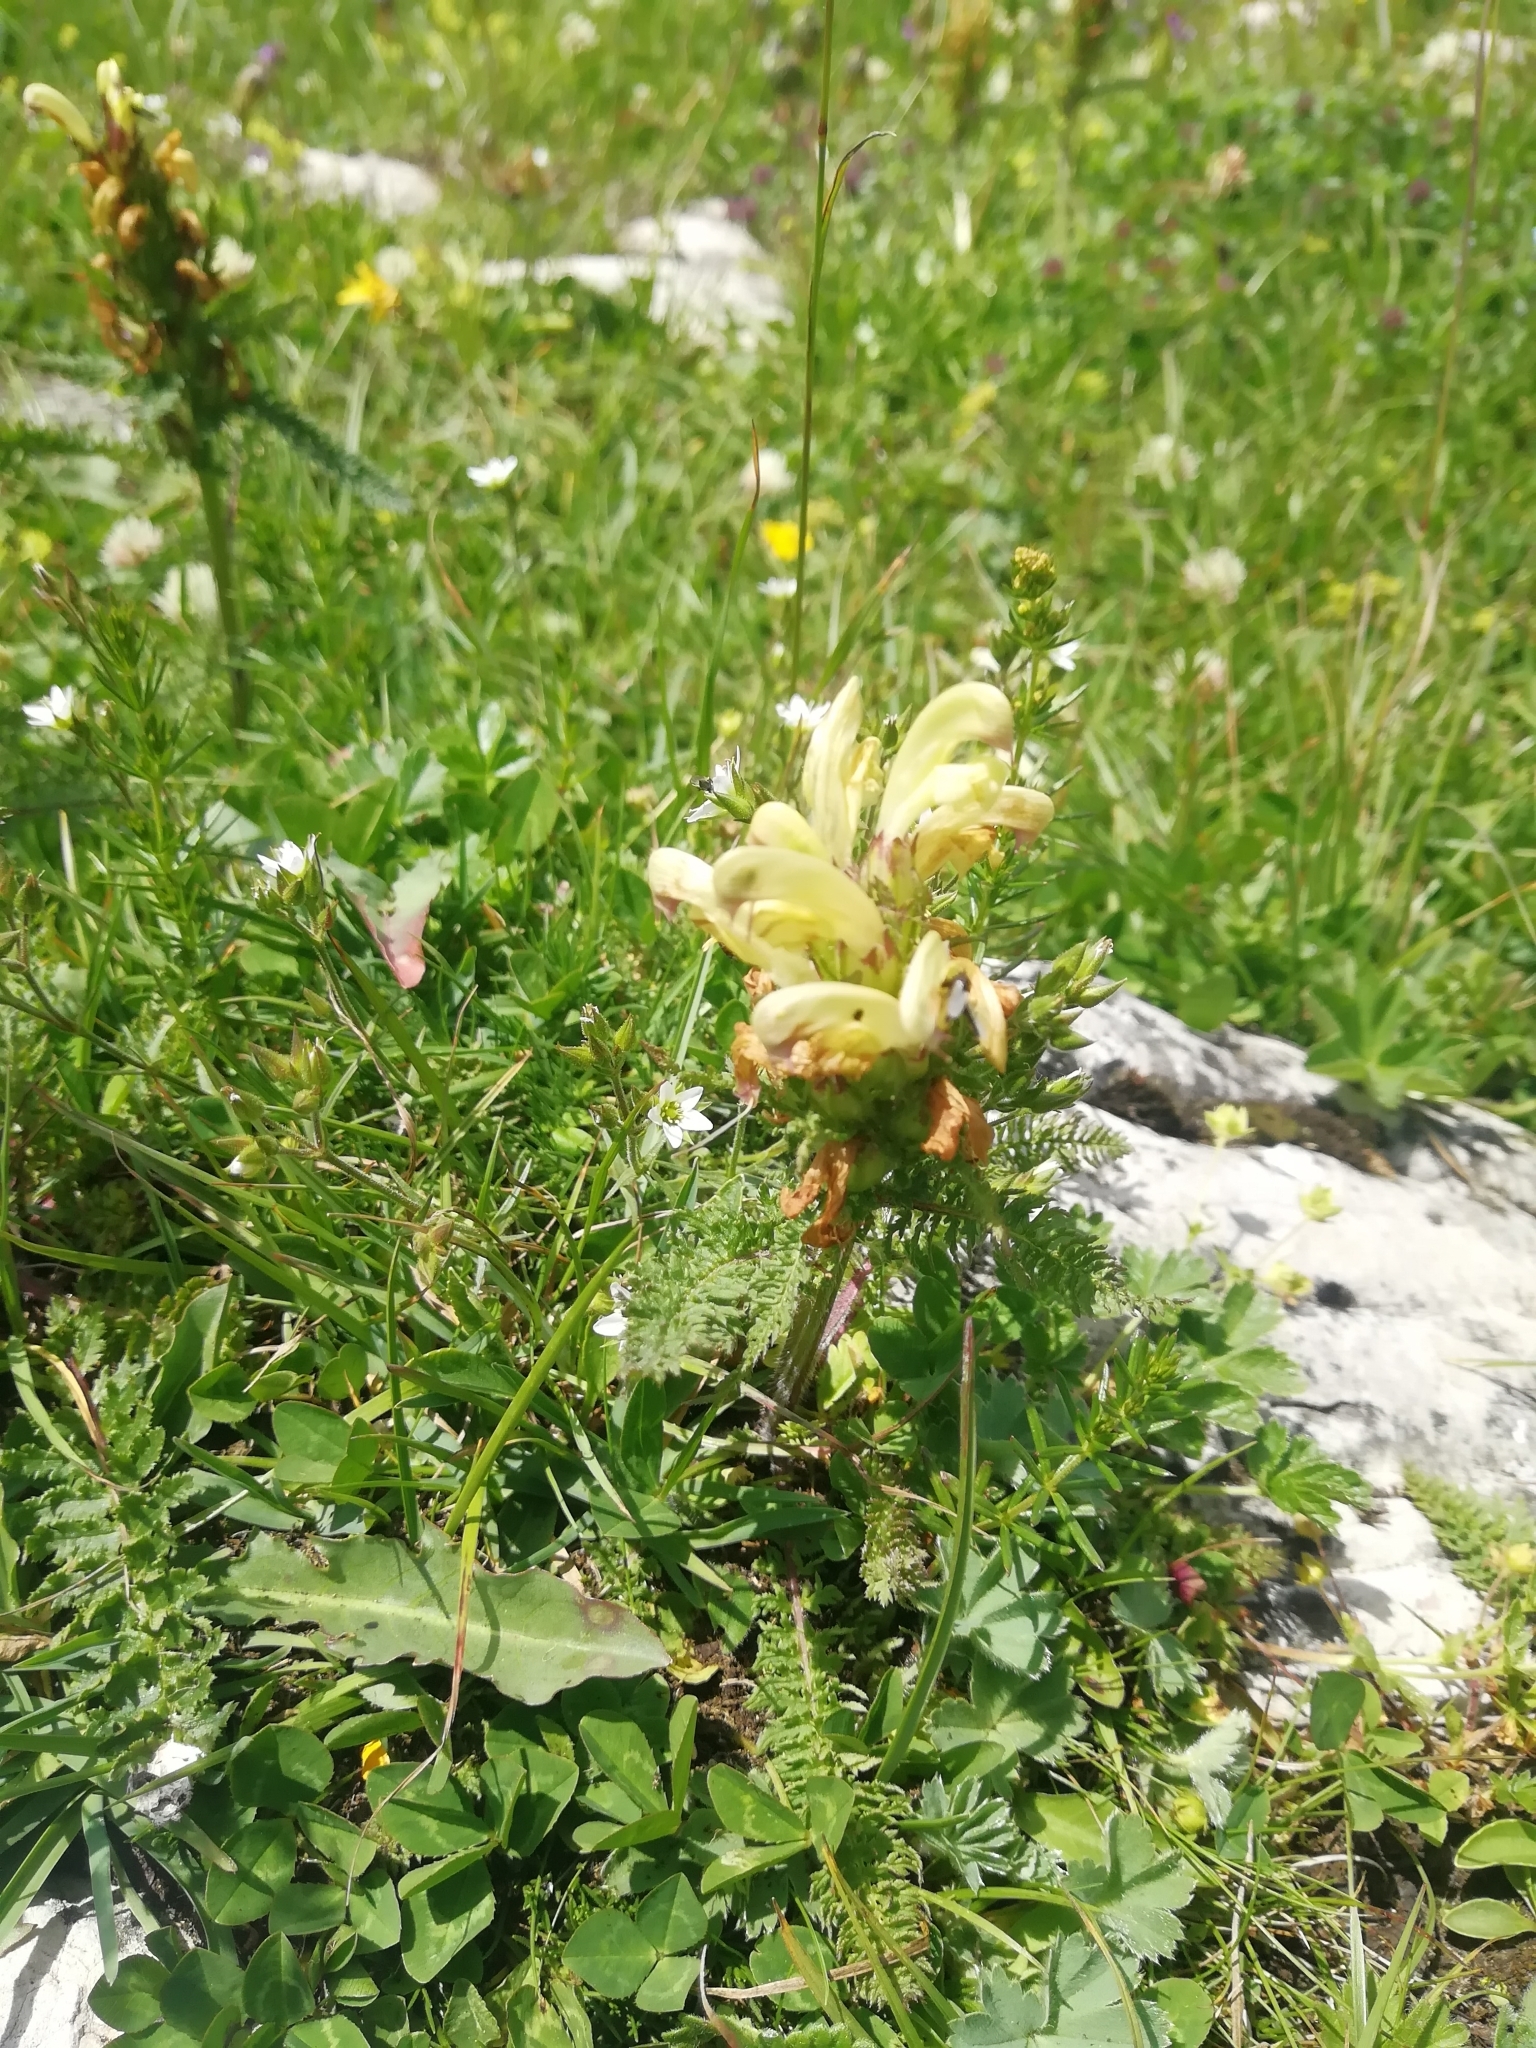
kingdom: Plantae
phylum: Tracheophyta
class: Magnoliopsida
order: Lamiales
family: Orobanchaceae
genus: Pedicularis
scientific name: Pedicularis chroorrhyncha
